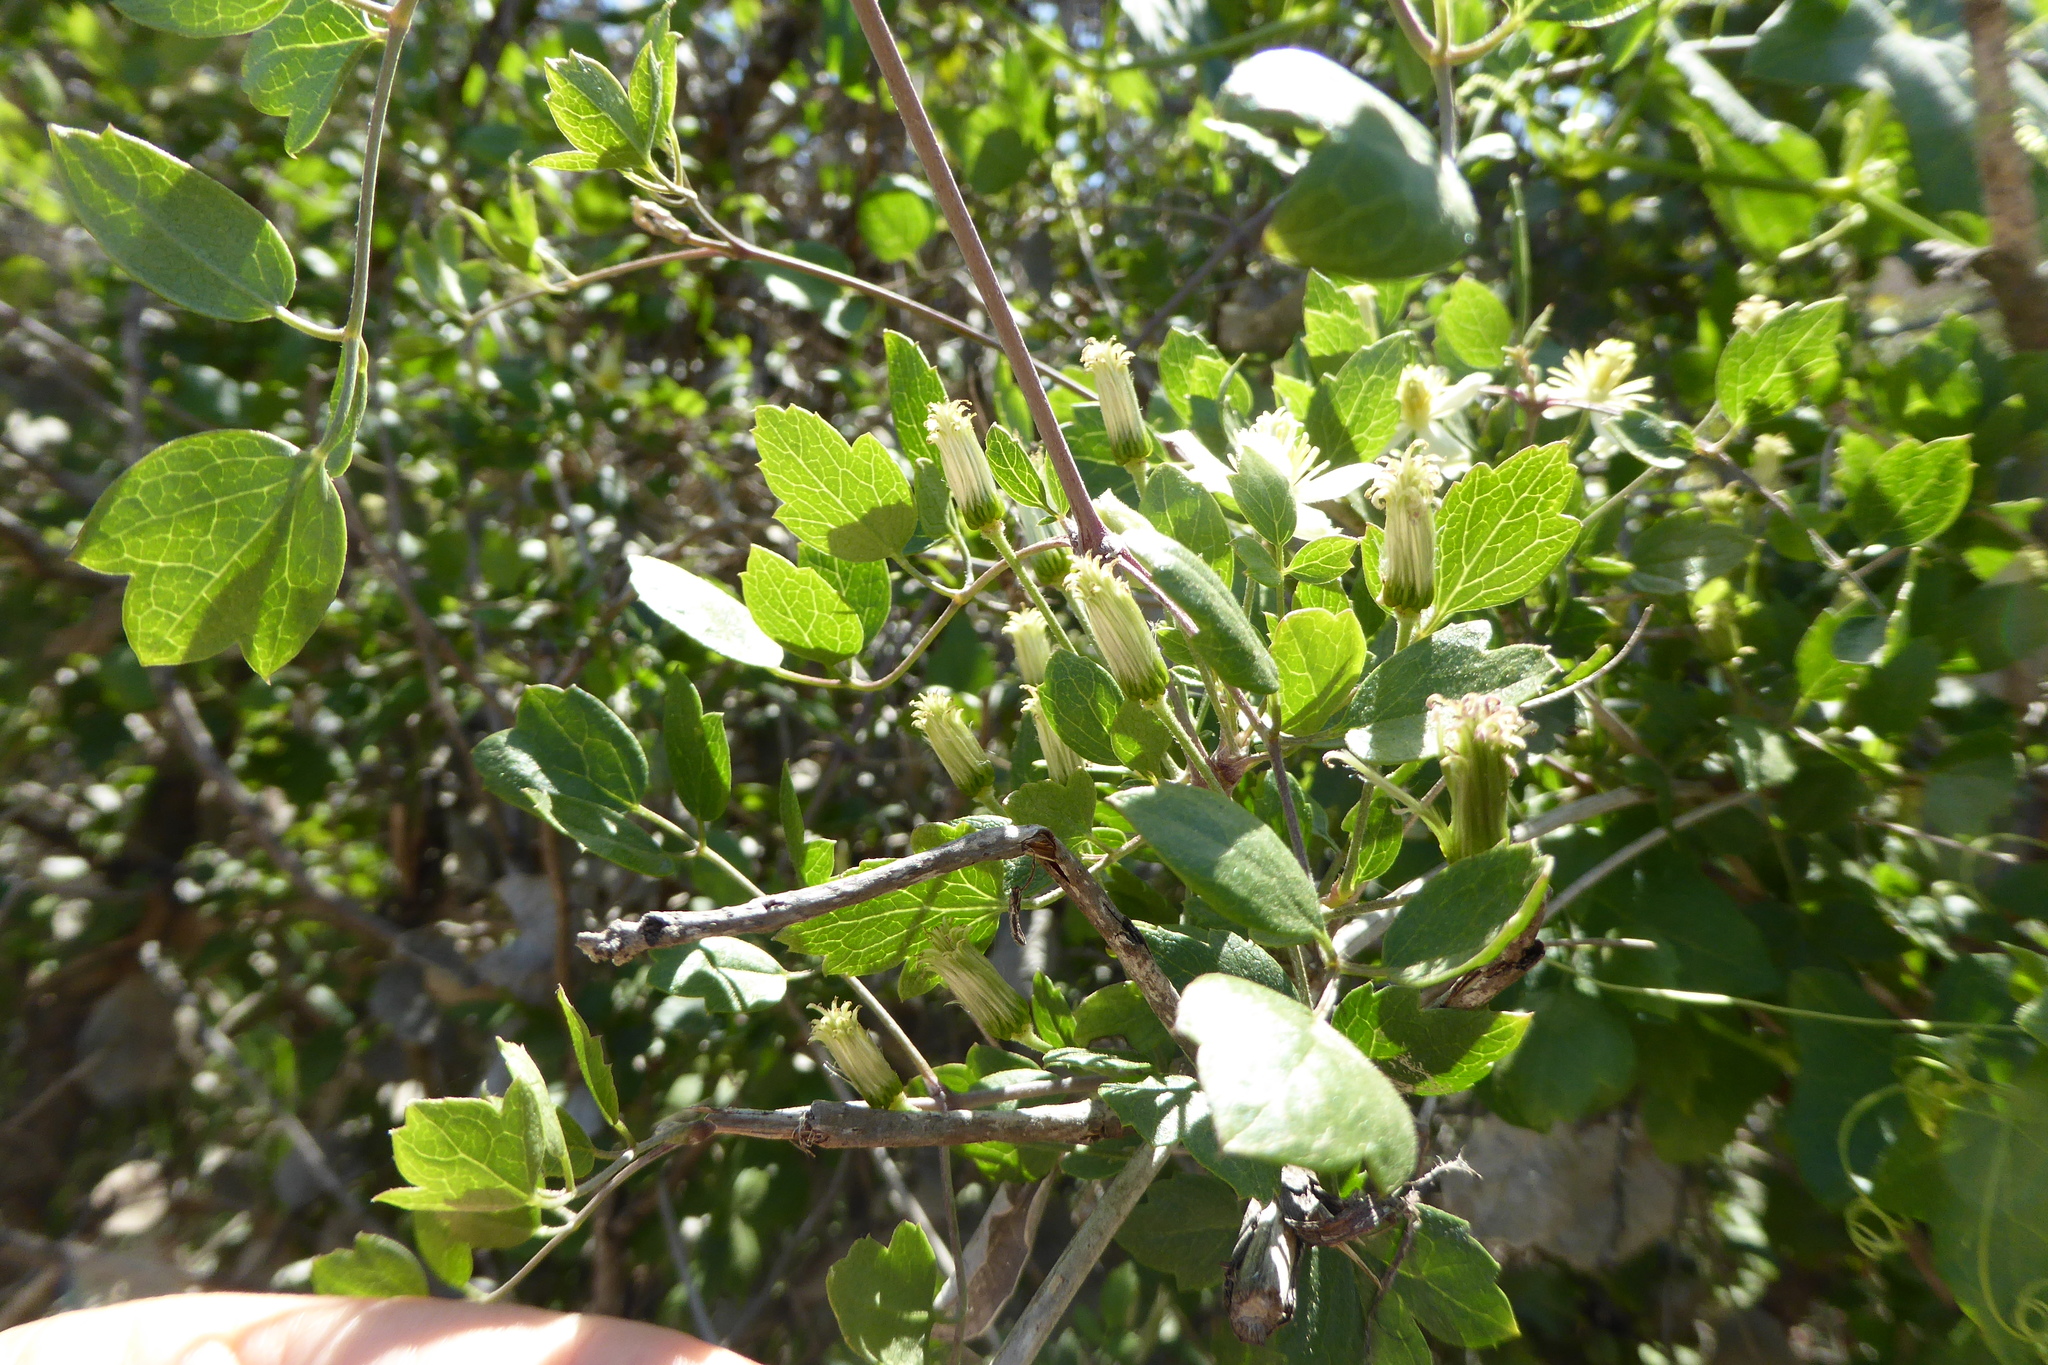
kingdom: Plantae
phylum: Tracheophyta
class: Magnoliopsida
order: Ranunculales
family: Ranunculaceae
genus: Clematis
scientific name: Clematis pauciflora
